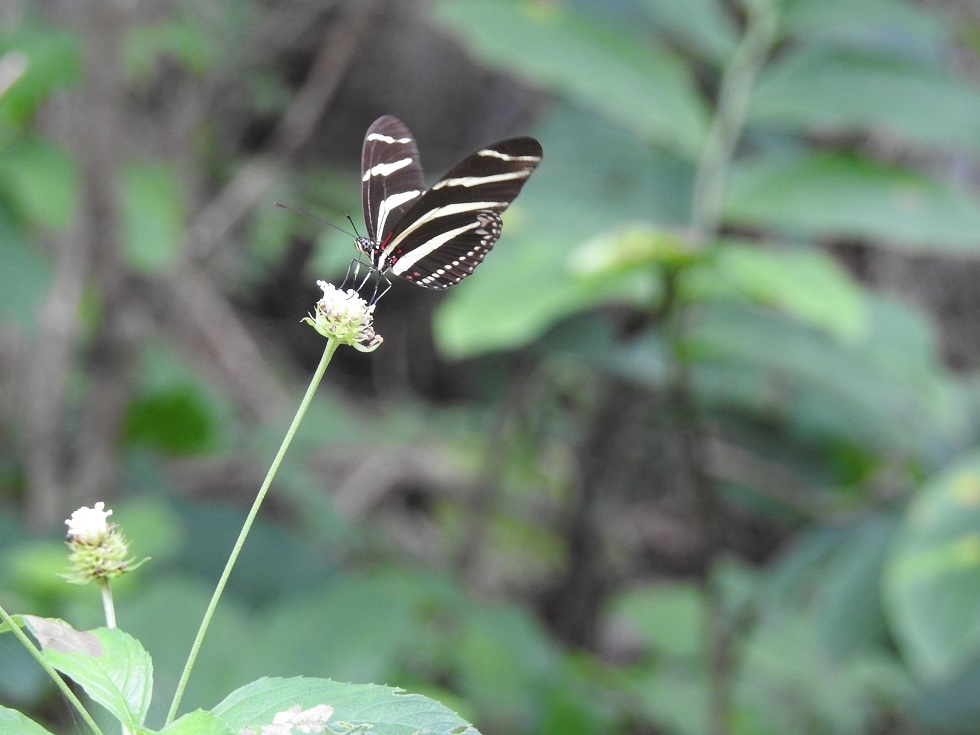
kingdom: Animalia
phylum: Arthropoda
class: Insecta
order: Lepidoptera
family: Nymphalidae
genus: Heliconius
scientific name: Heliconius charithonia
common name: Zebra long wing
